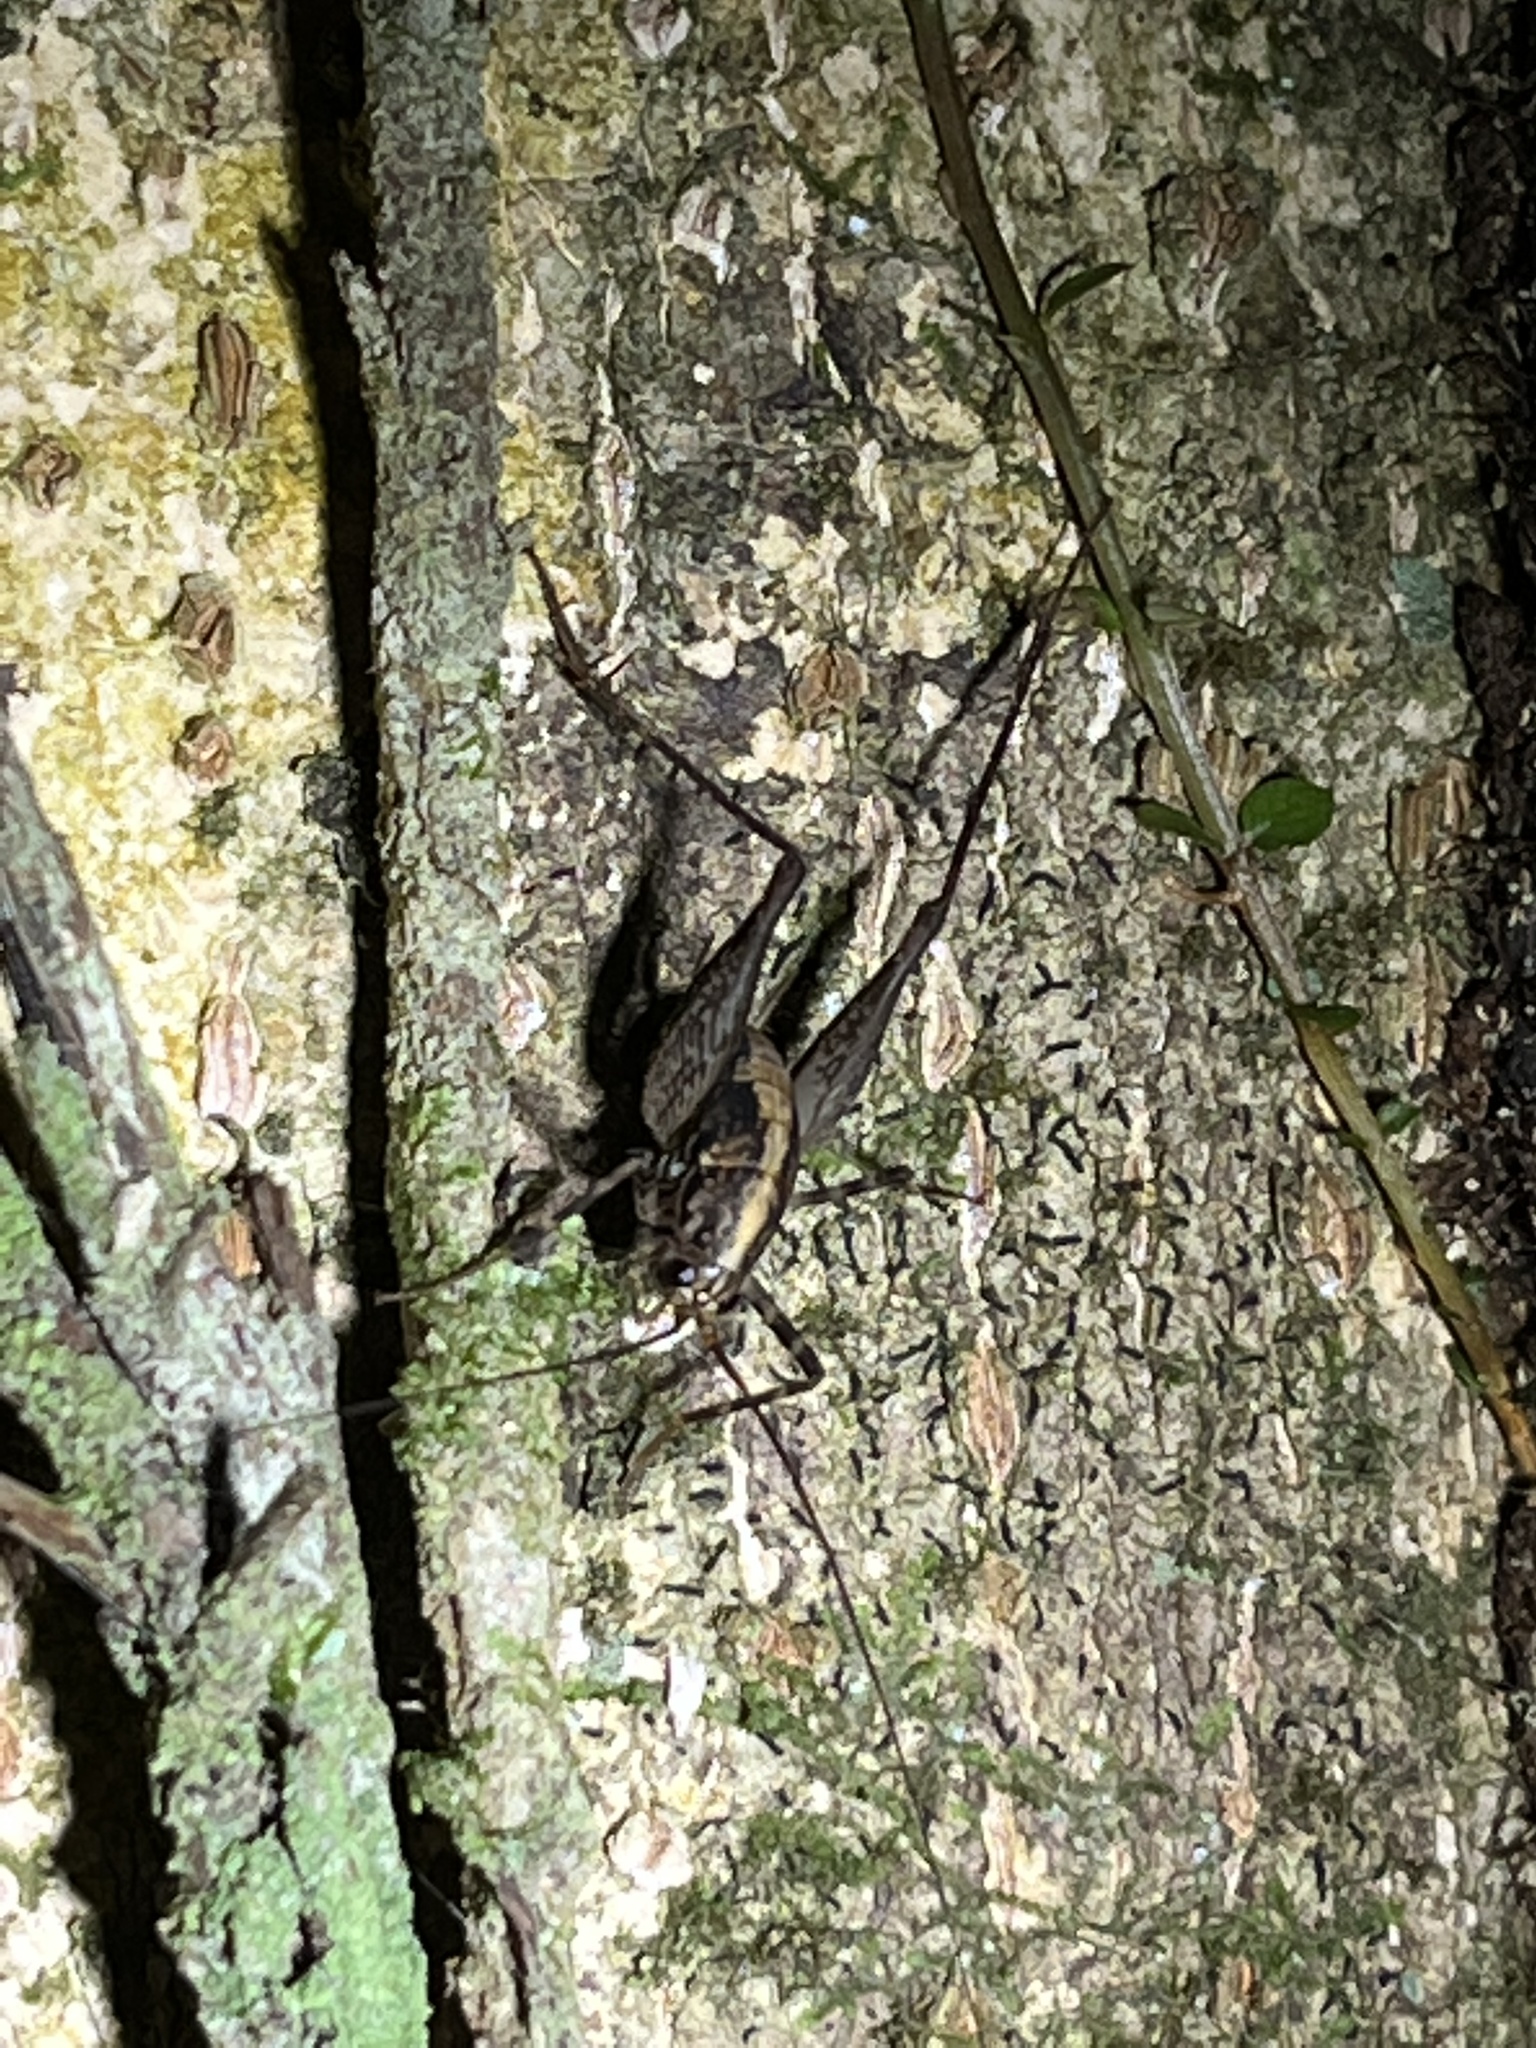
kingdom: Animalia
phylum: Arthropoda
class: Insecta
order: Orthoptera
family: Rhaphidophoridae
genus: Pleioplectron
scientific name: Pleioplectron hudsoni
